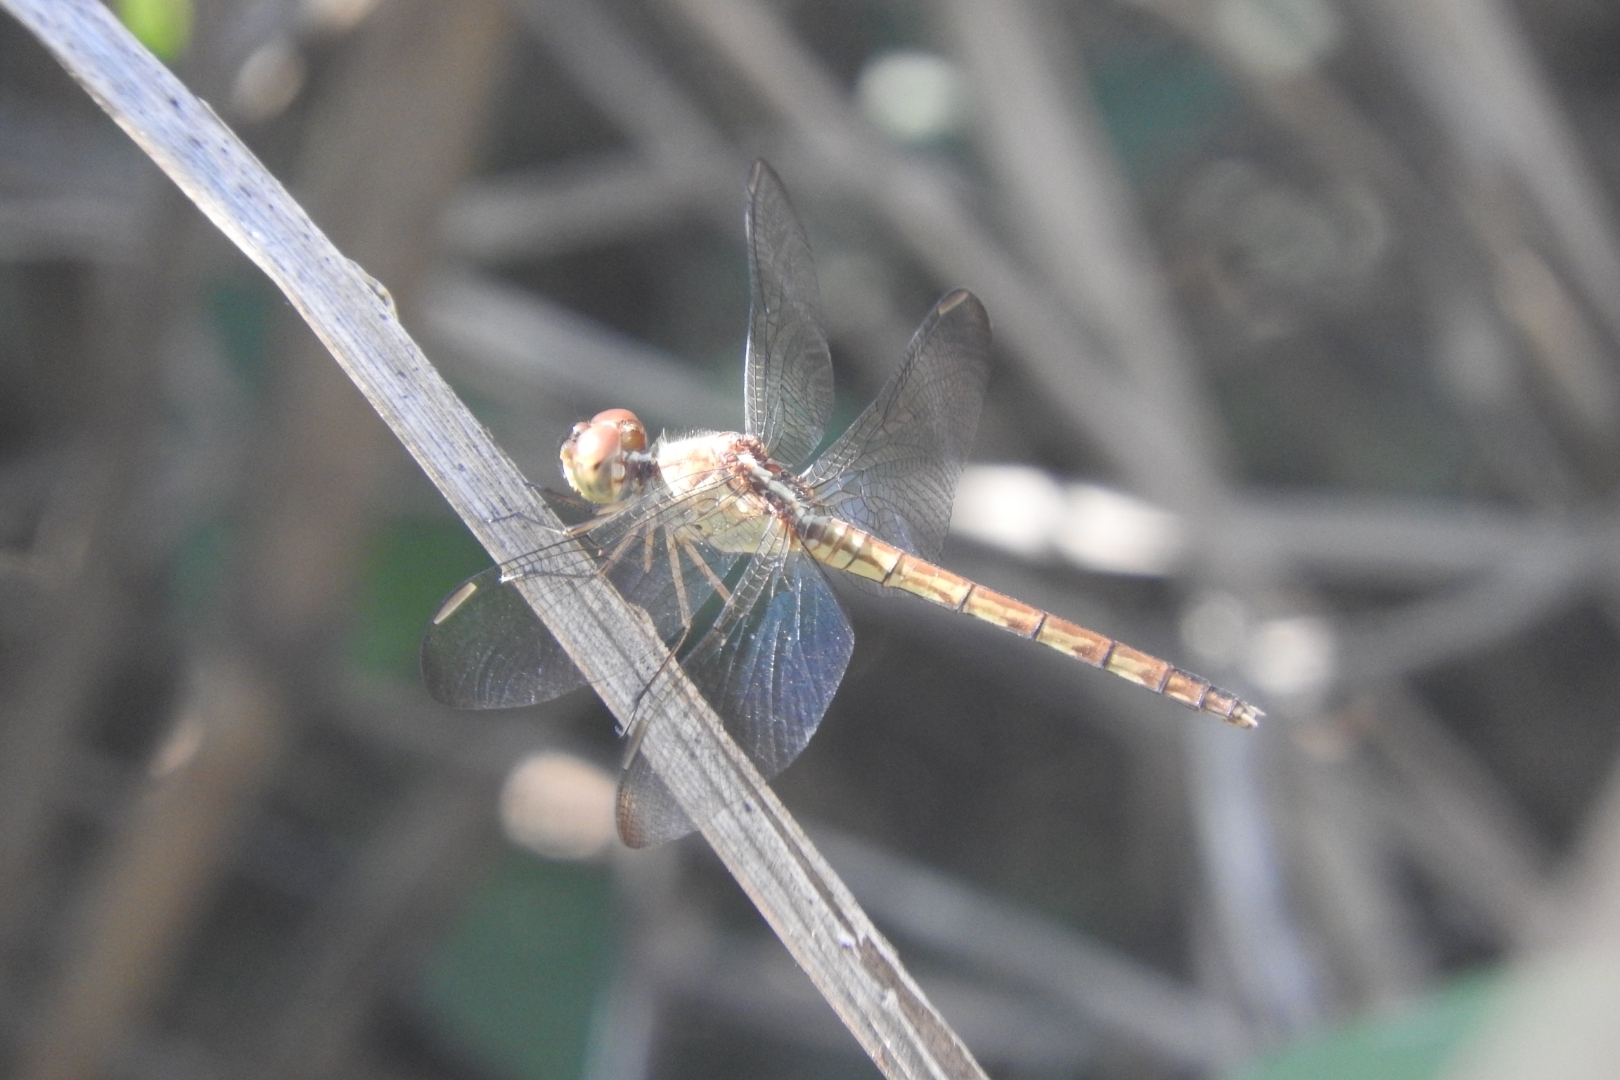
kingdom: Animalia
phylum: Arthropoda
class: Insecta
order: Odonata
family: Libellulidae
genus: Erythrodiplax
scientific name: Erythrodiplax umbrata
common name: Band-winged dragonlet
